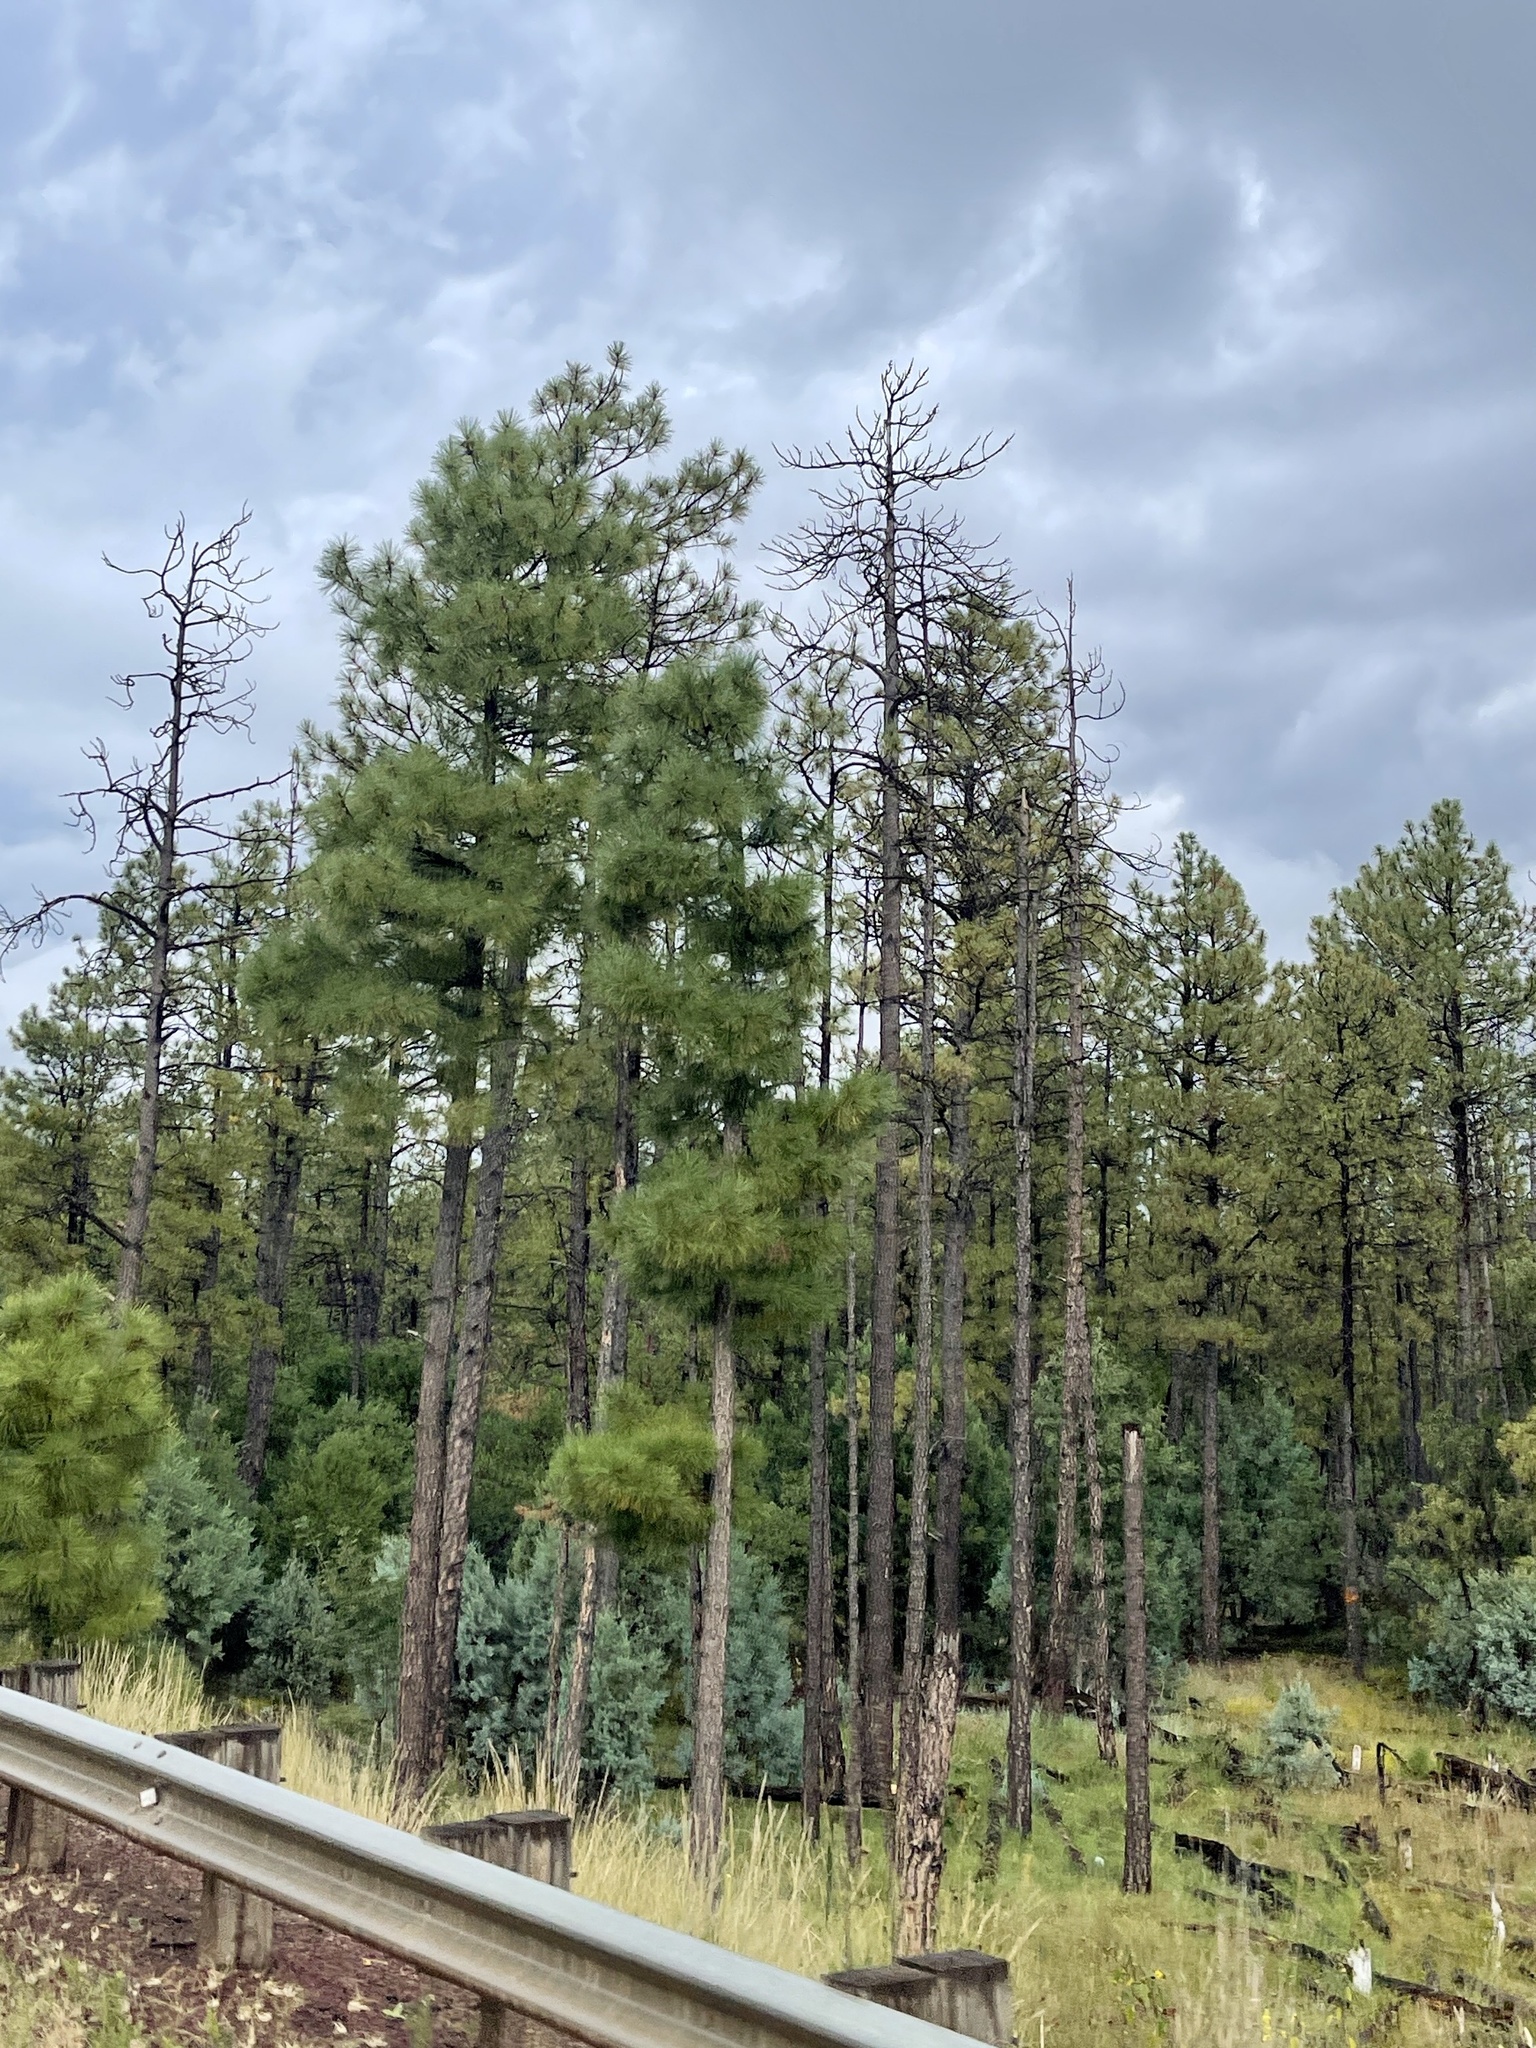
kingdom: Plantae
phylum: Tracheophyta
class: Pinopsida
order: Pinales
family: Pinaceae
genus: Pinus
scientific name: Pinus ponderosa
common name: Western yellow-pine
